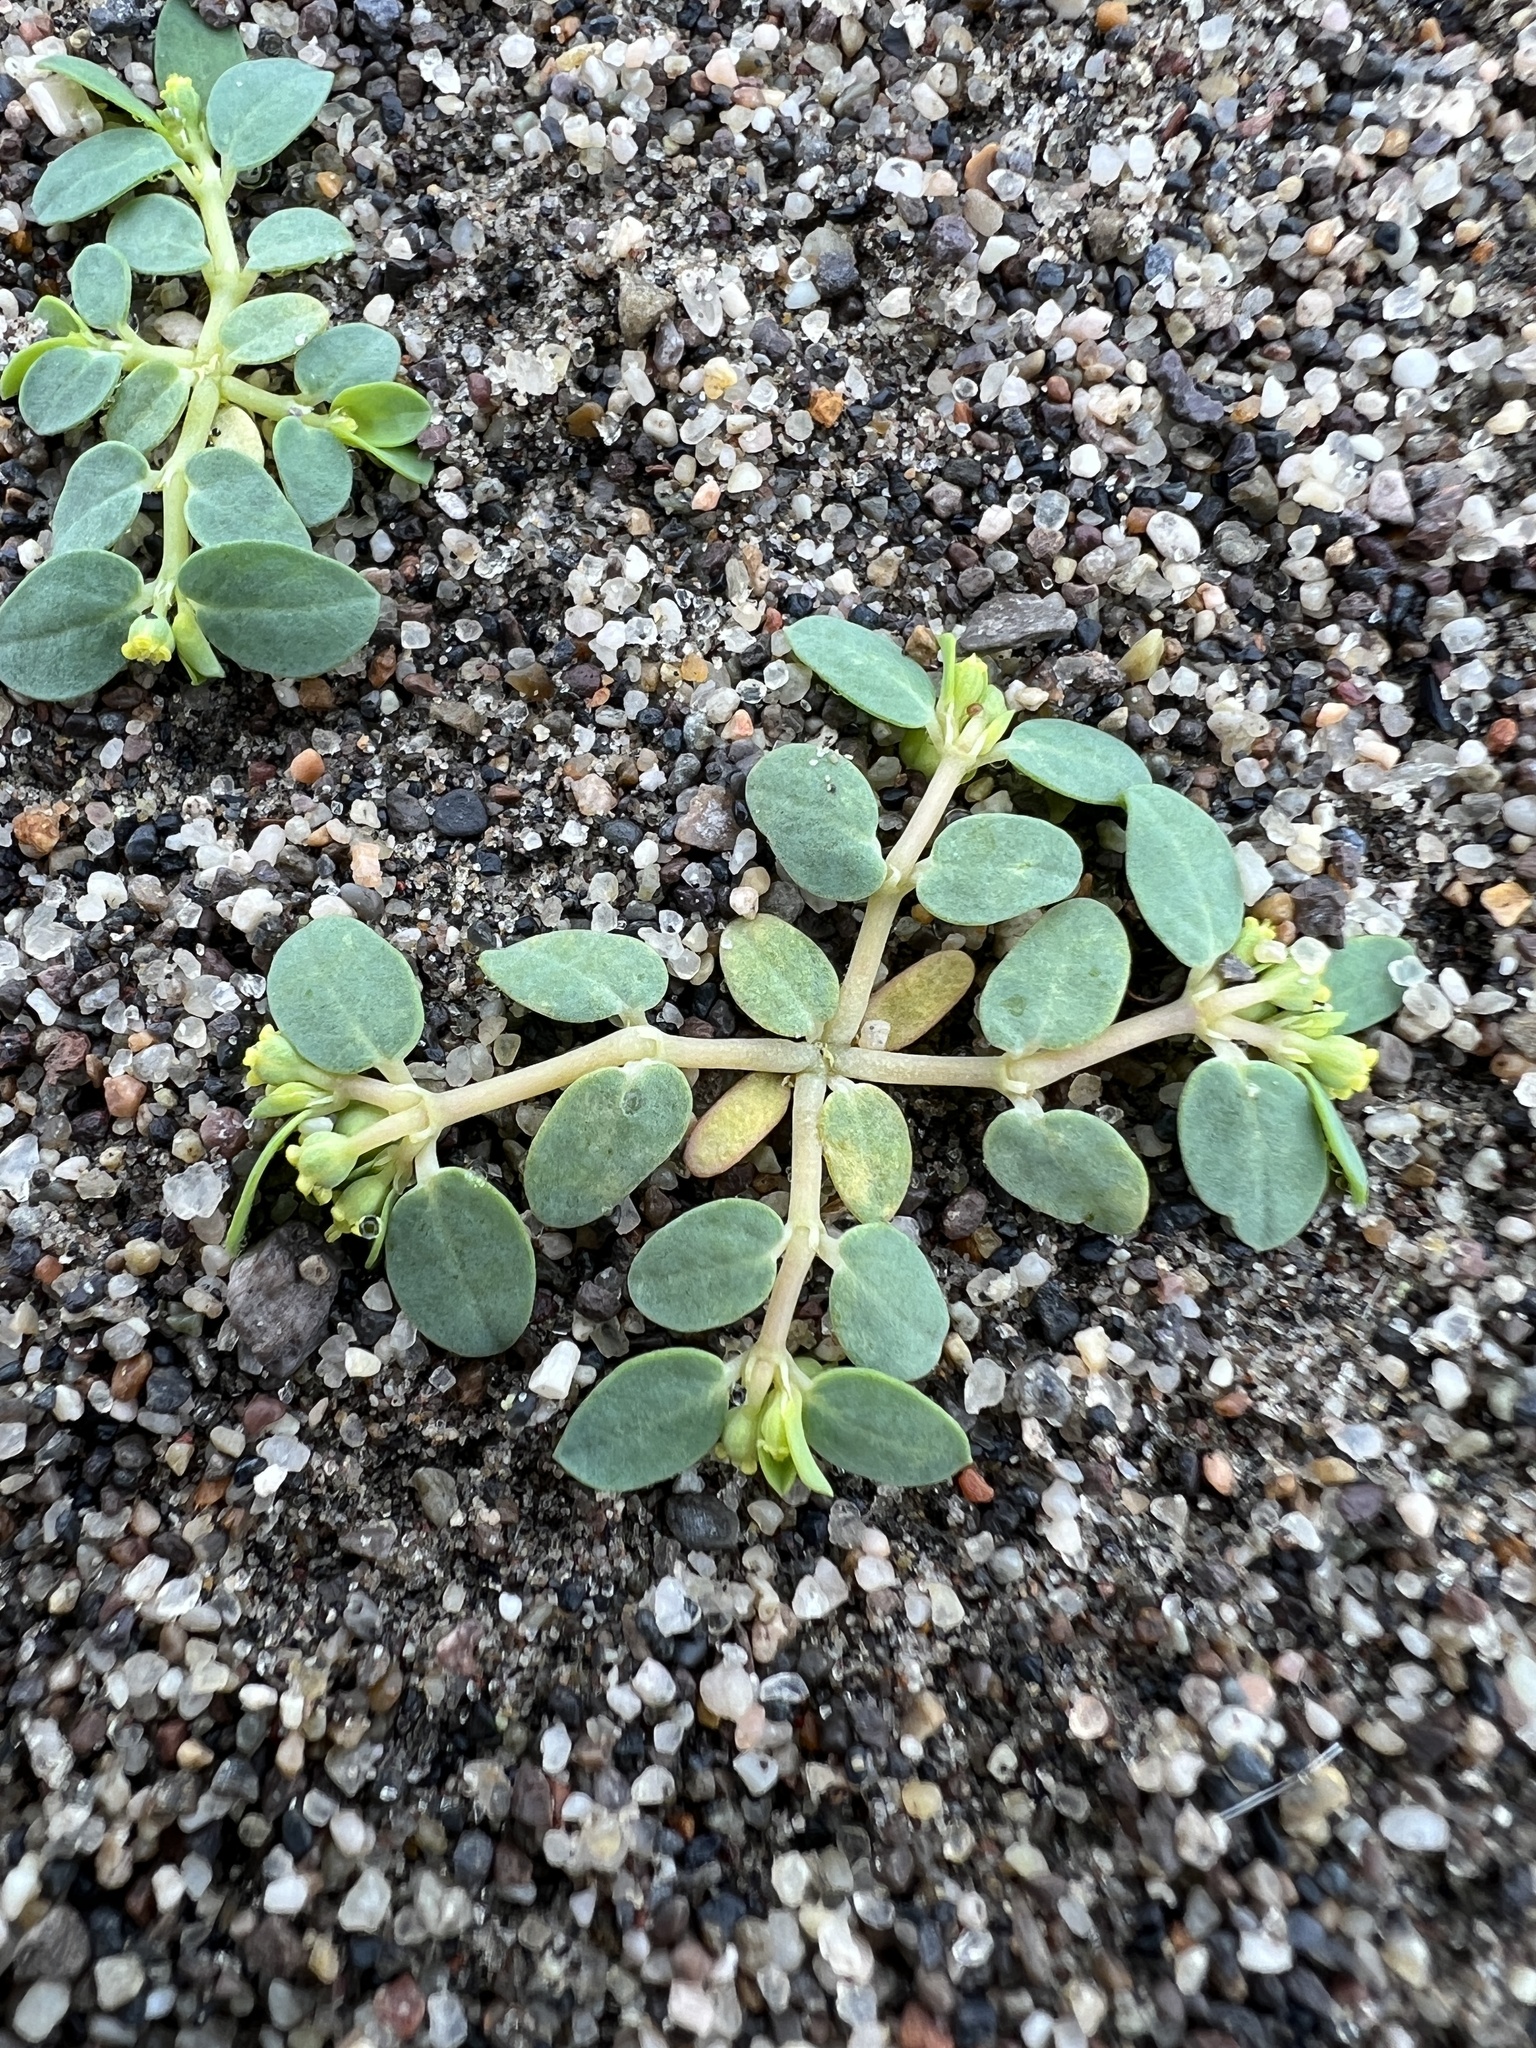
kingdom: Plantae
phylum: Tracheophyta
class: Magnoliopsida
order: Malpighiales
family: Euphorbiaceae
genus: Euphorbia
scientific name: Euphorbia ocellata
